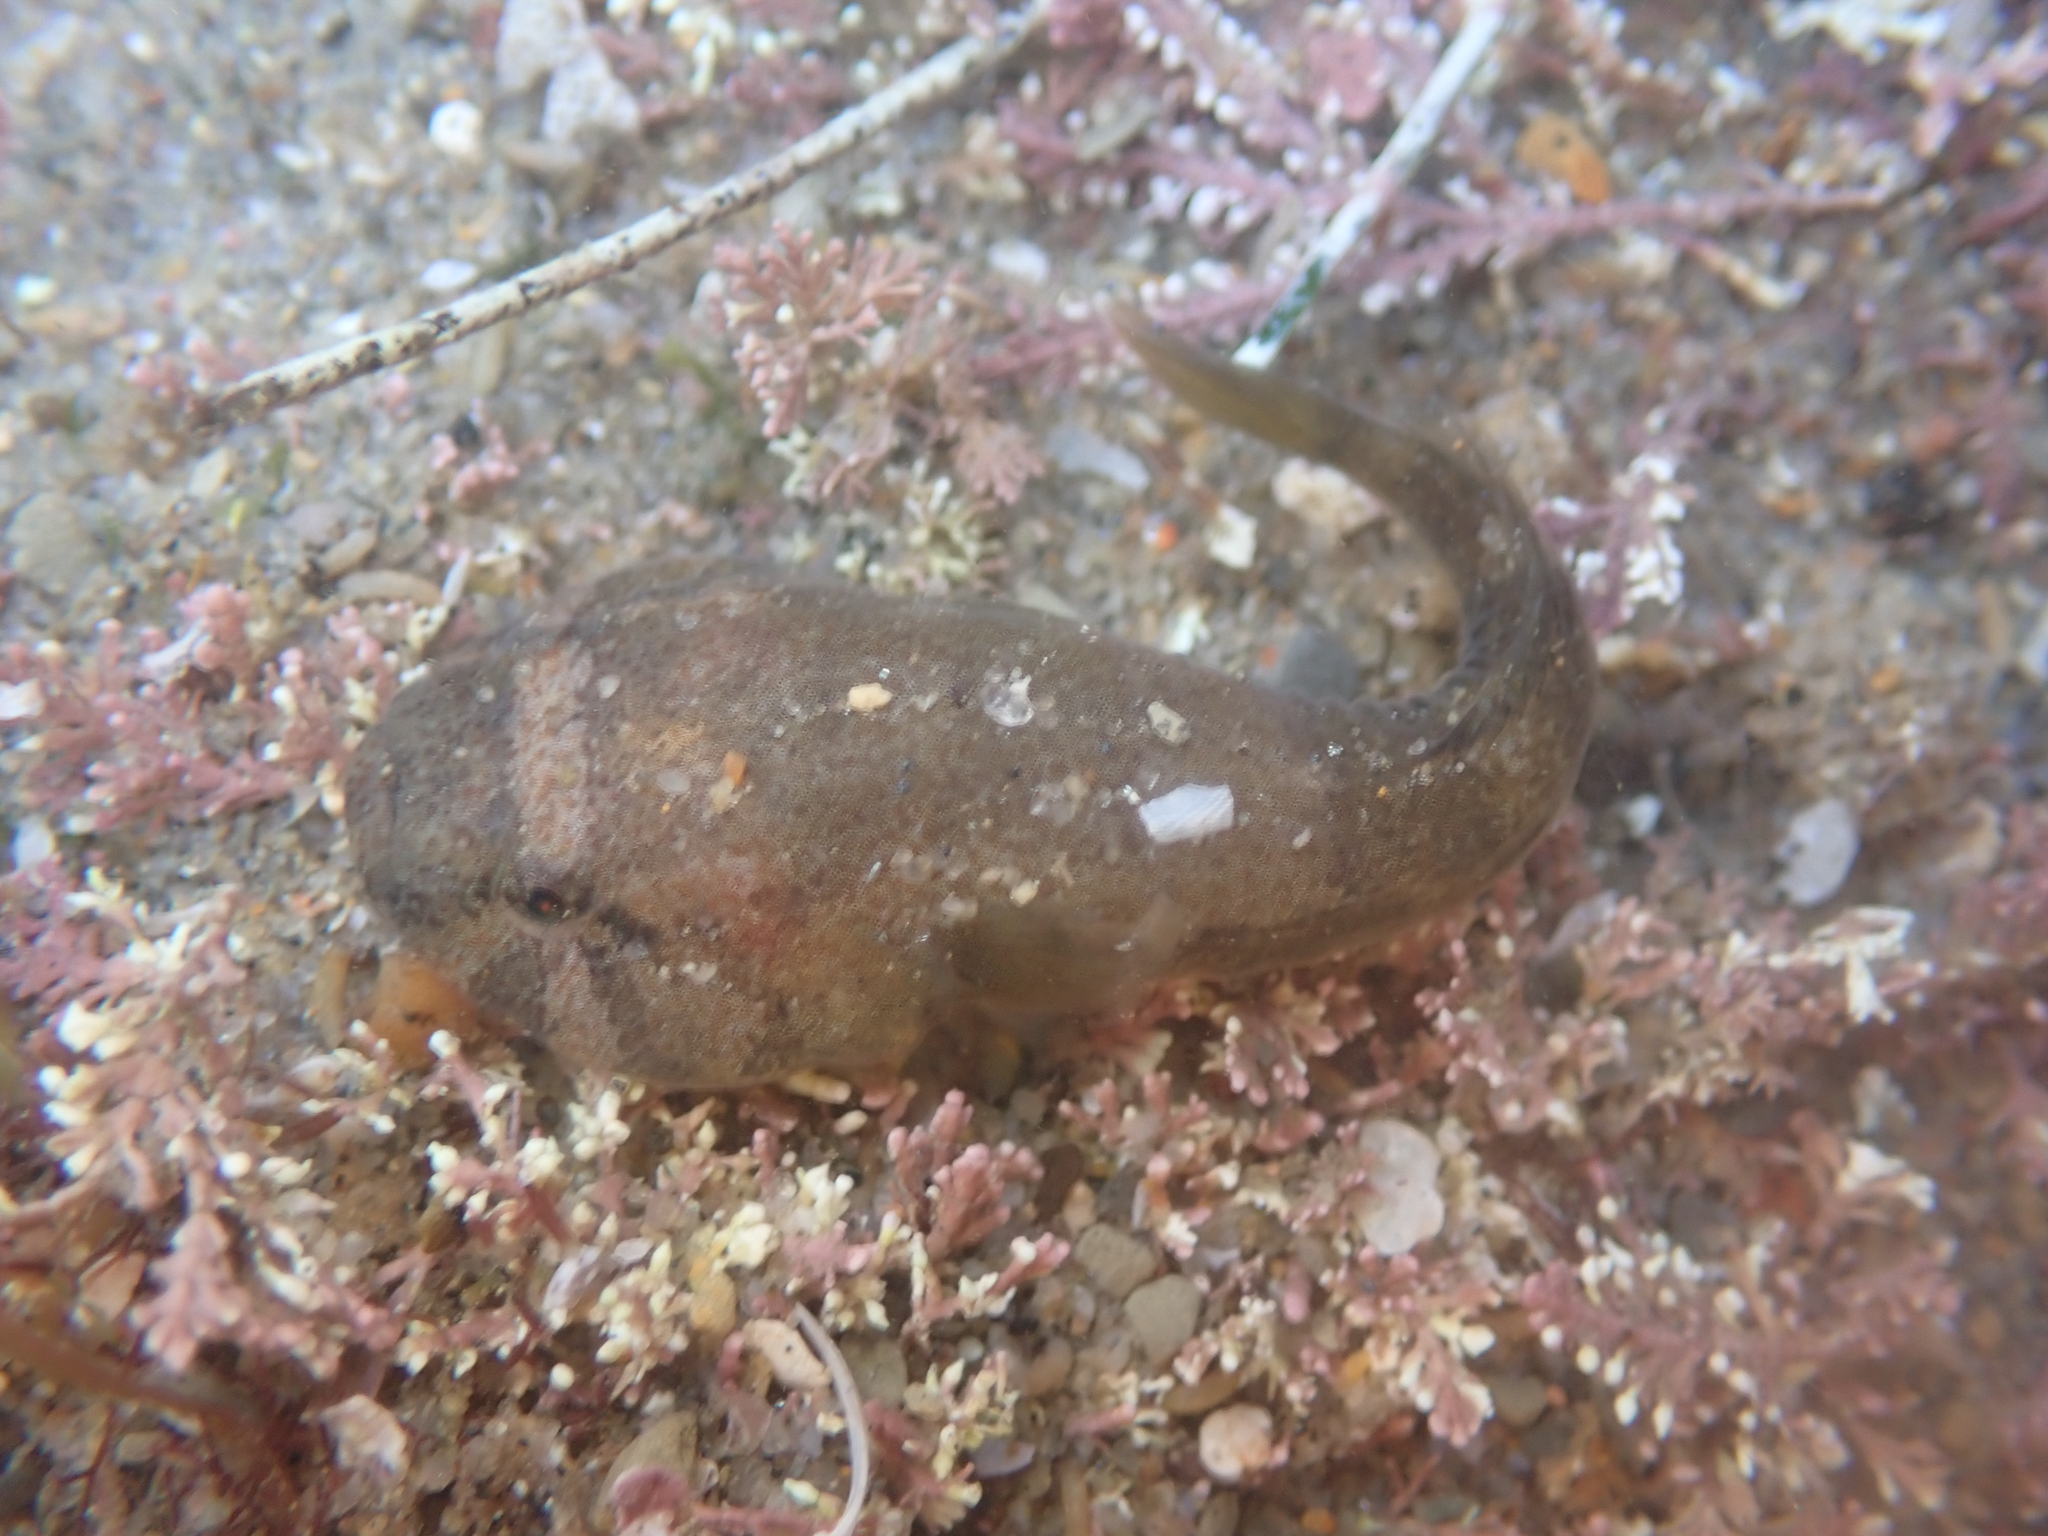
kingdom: Animalia
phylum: Chordata
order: Gobiesociformes
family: Gobiesocidae
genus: Gobiesox
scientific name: Gobiesox rhessodon
